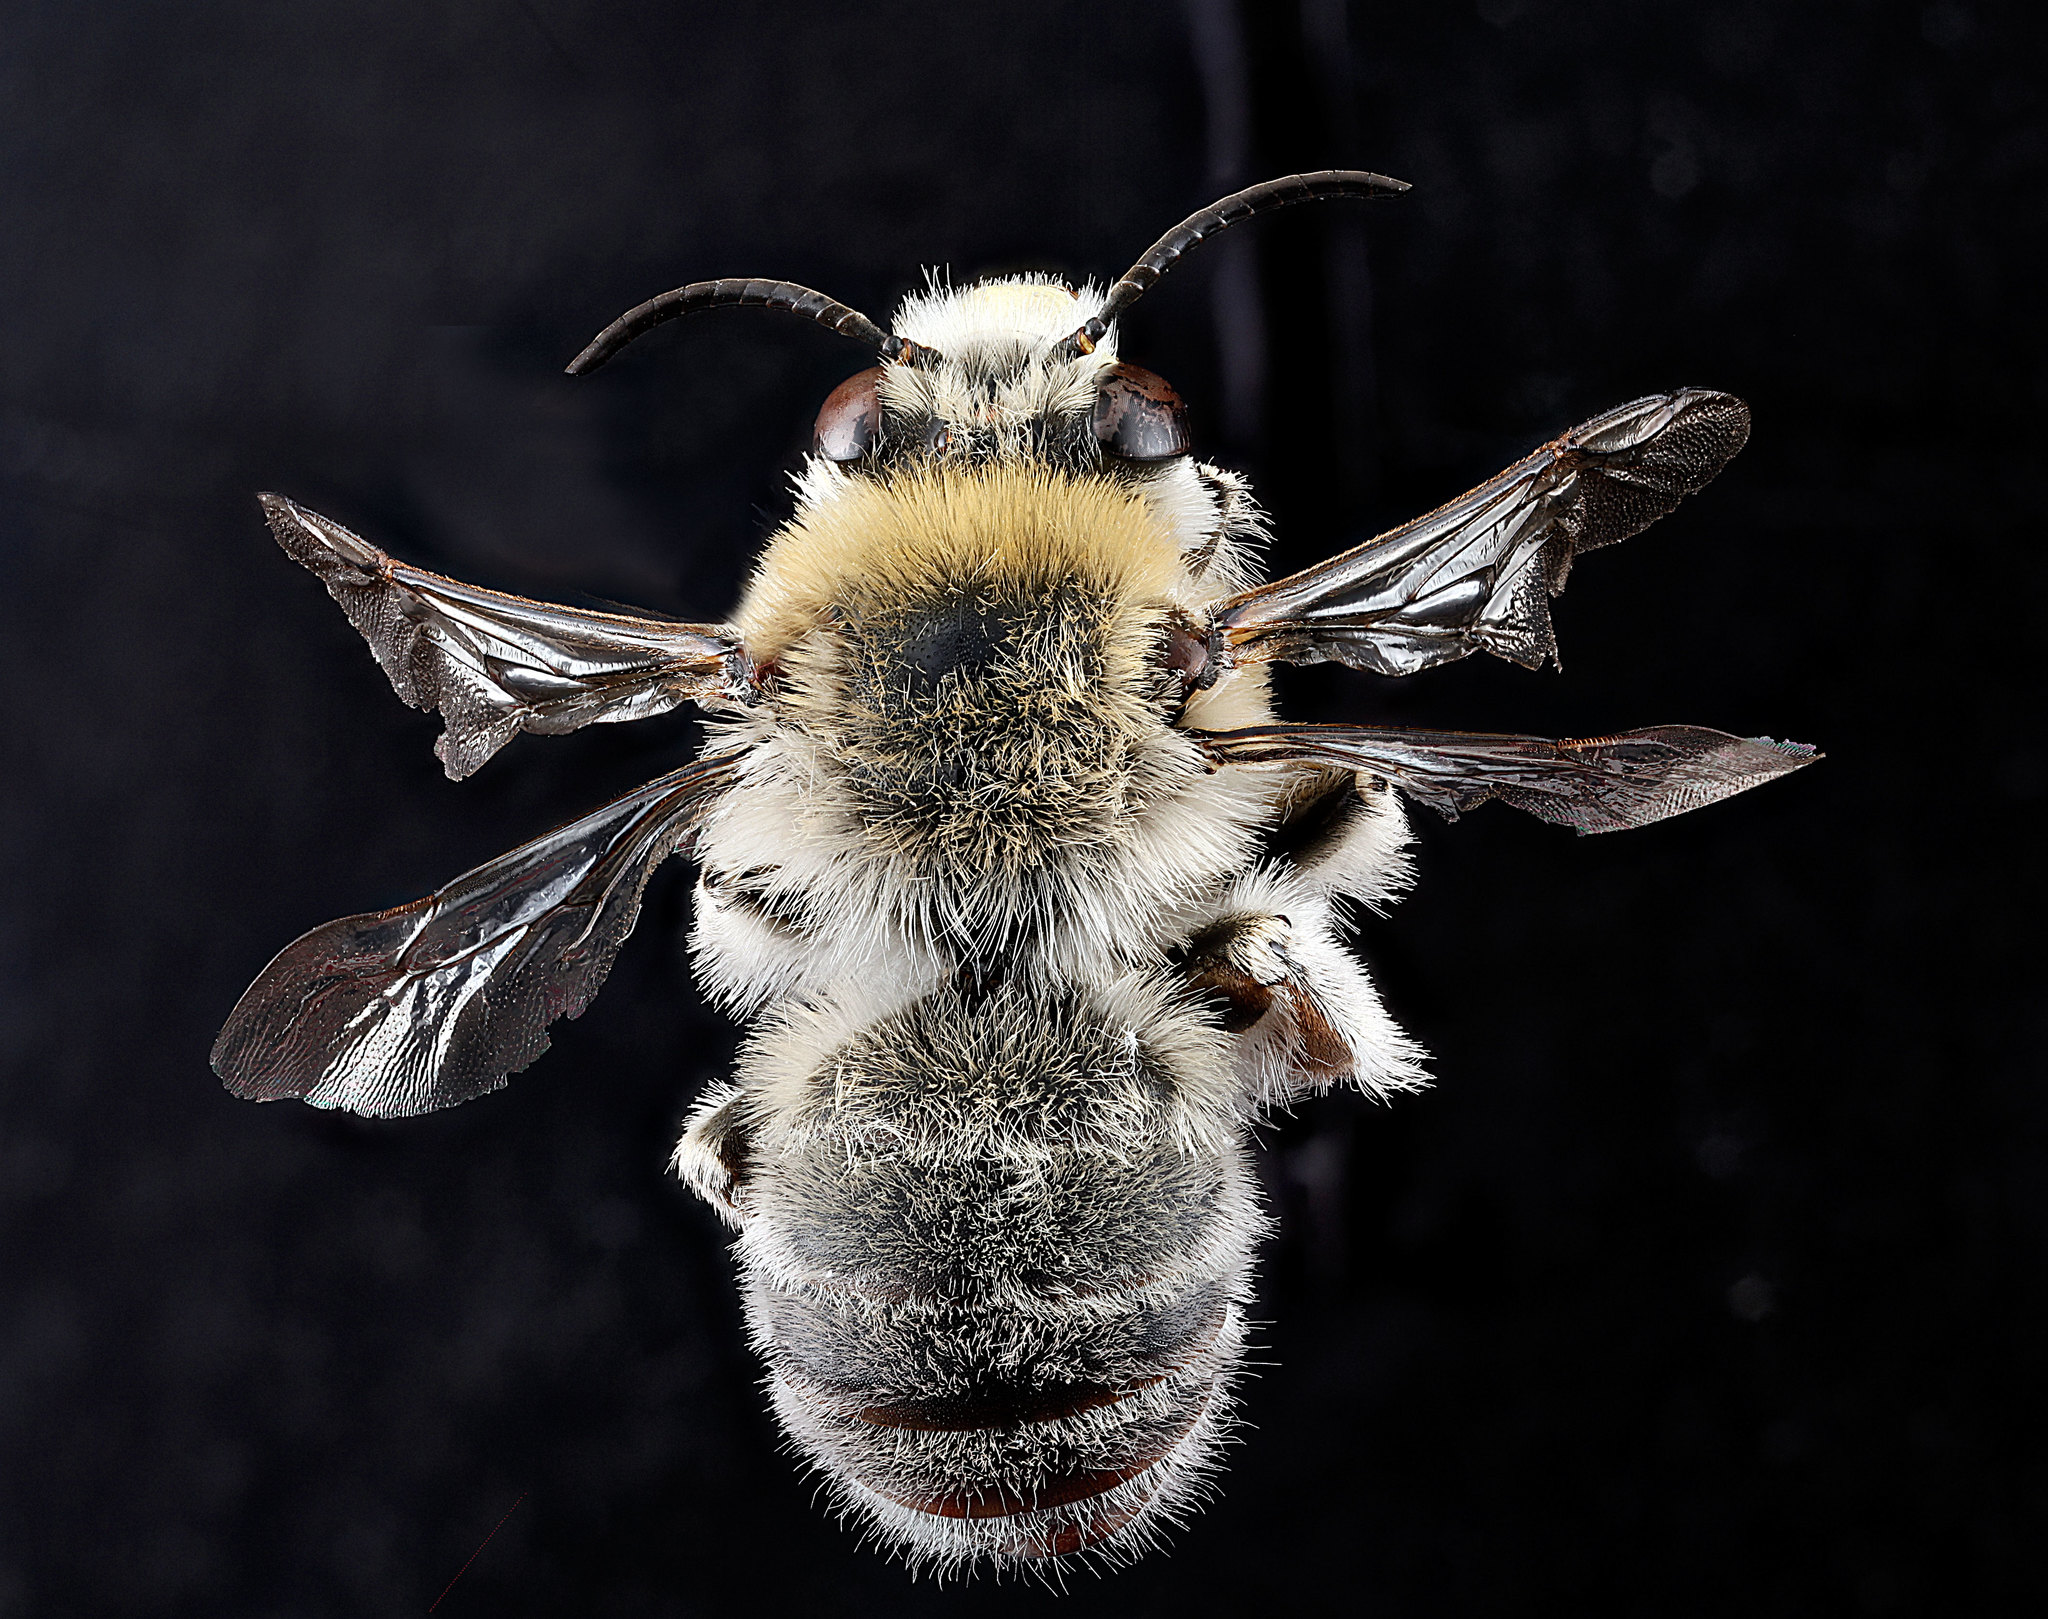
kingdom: Animalia
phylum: Arthropoda
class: Insecta
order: Hymenoptera
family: Apidae
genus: Anthophora
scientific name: Anthophora occidentalis
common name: Digger bee
